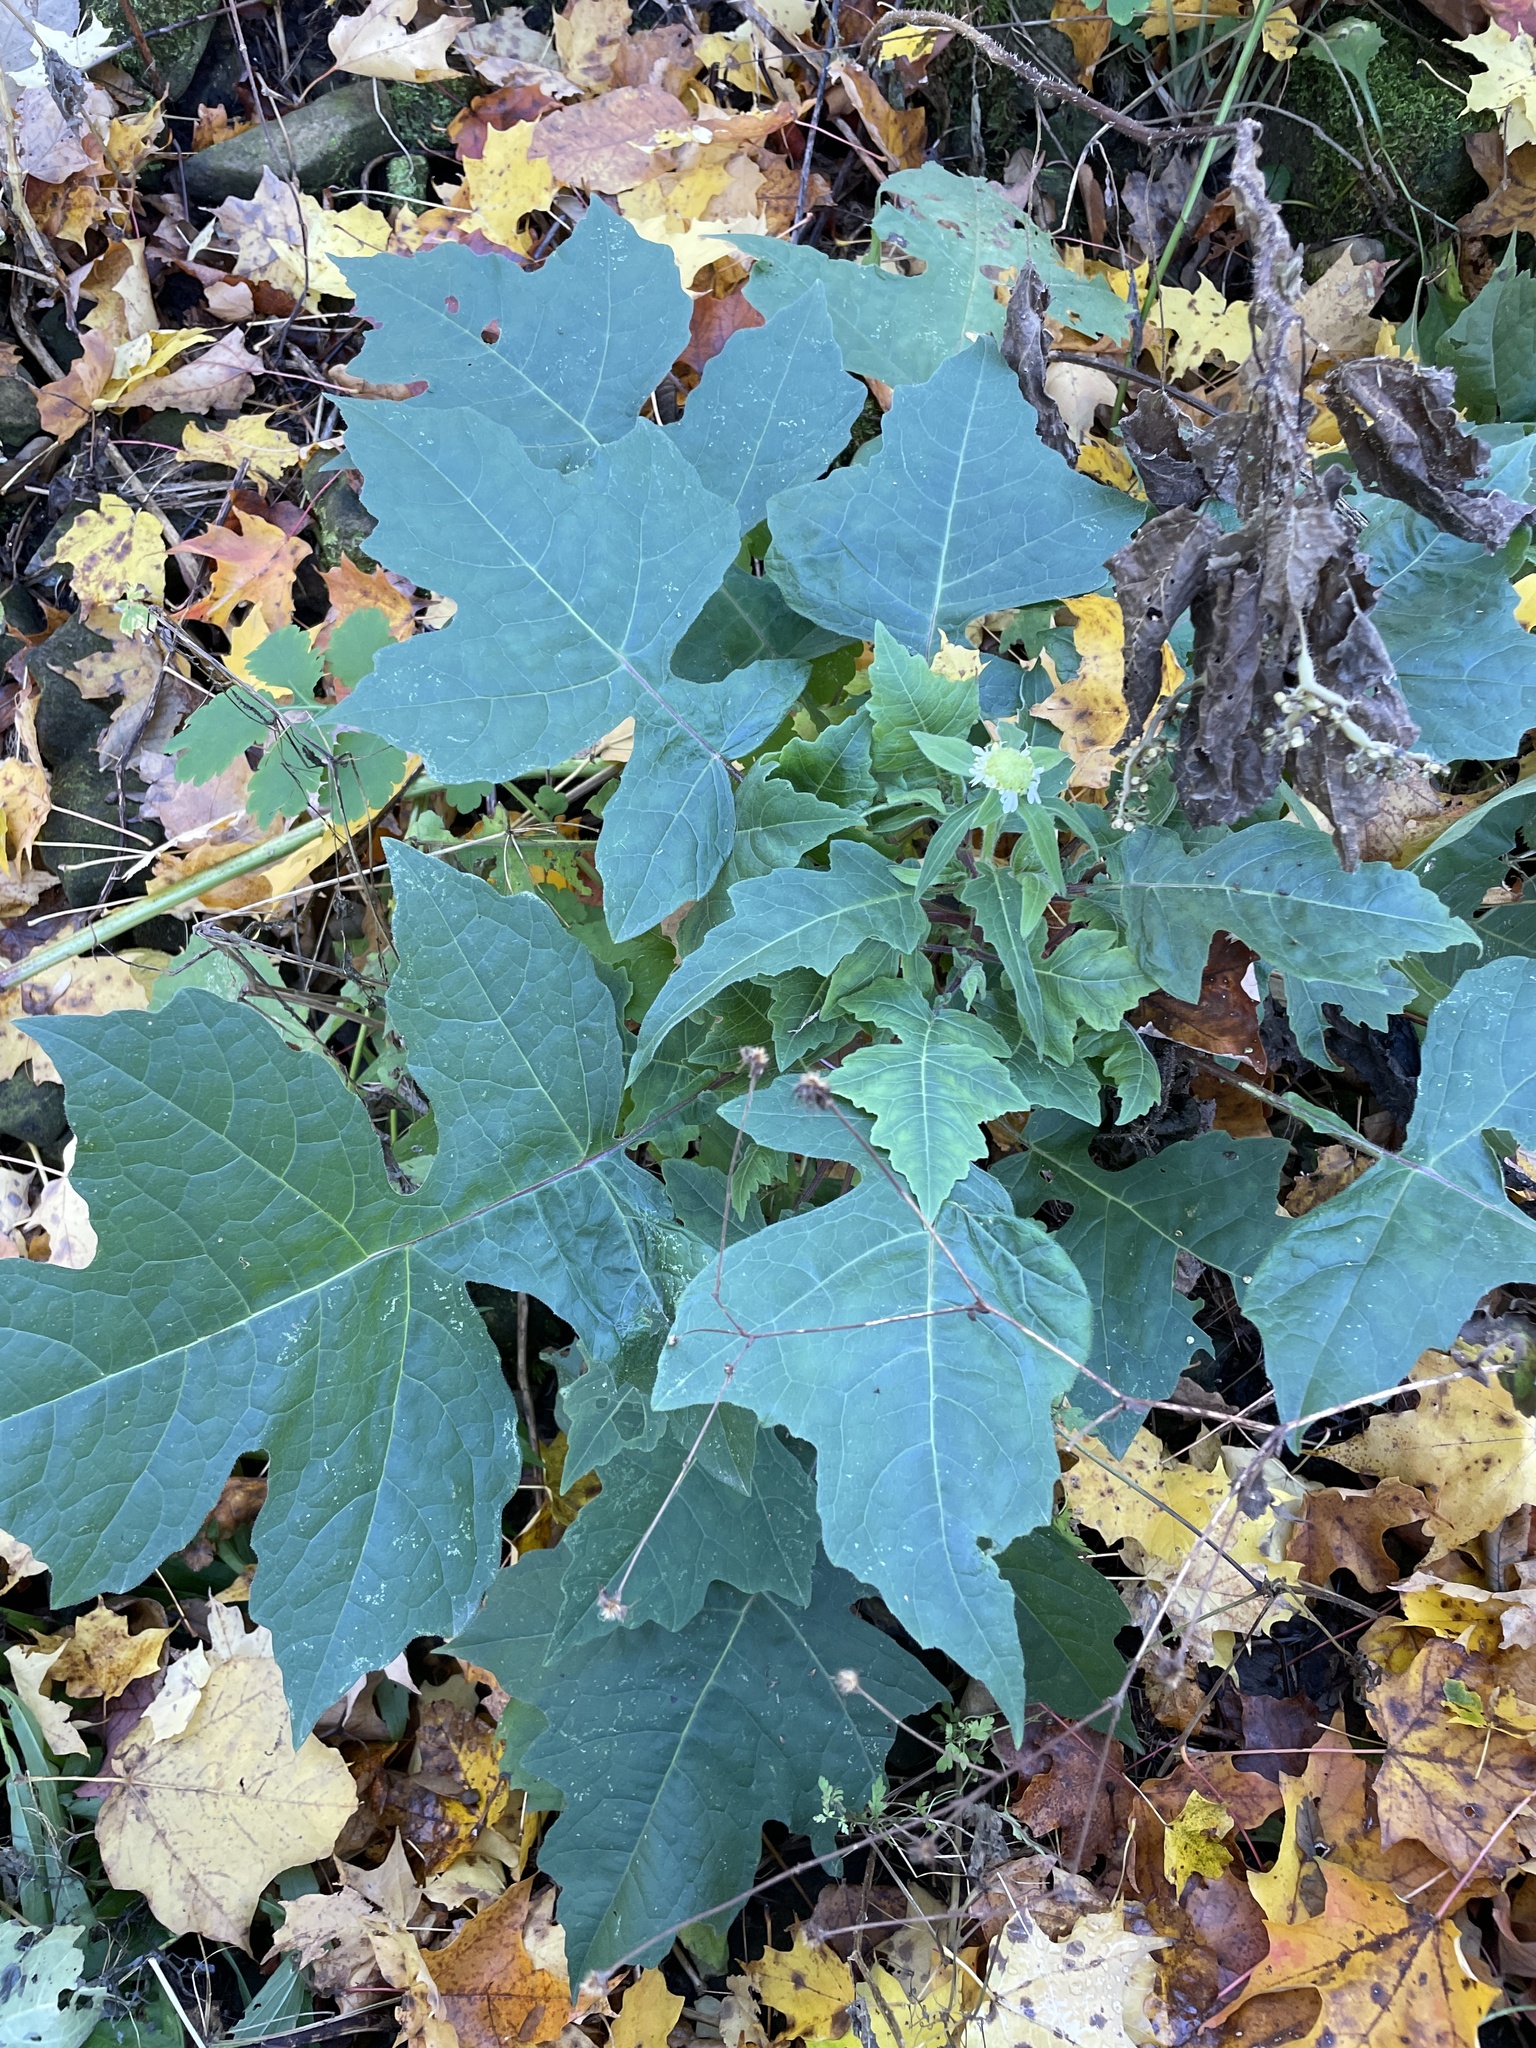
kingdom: Plantae
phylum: Tracheophyta
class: Magnoliopsida
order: Asterales
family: Asteraceae
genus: Polymnia
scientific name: Polymnia canadensis
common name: Pale-flowered leafcup
